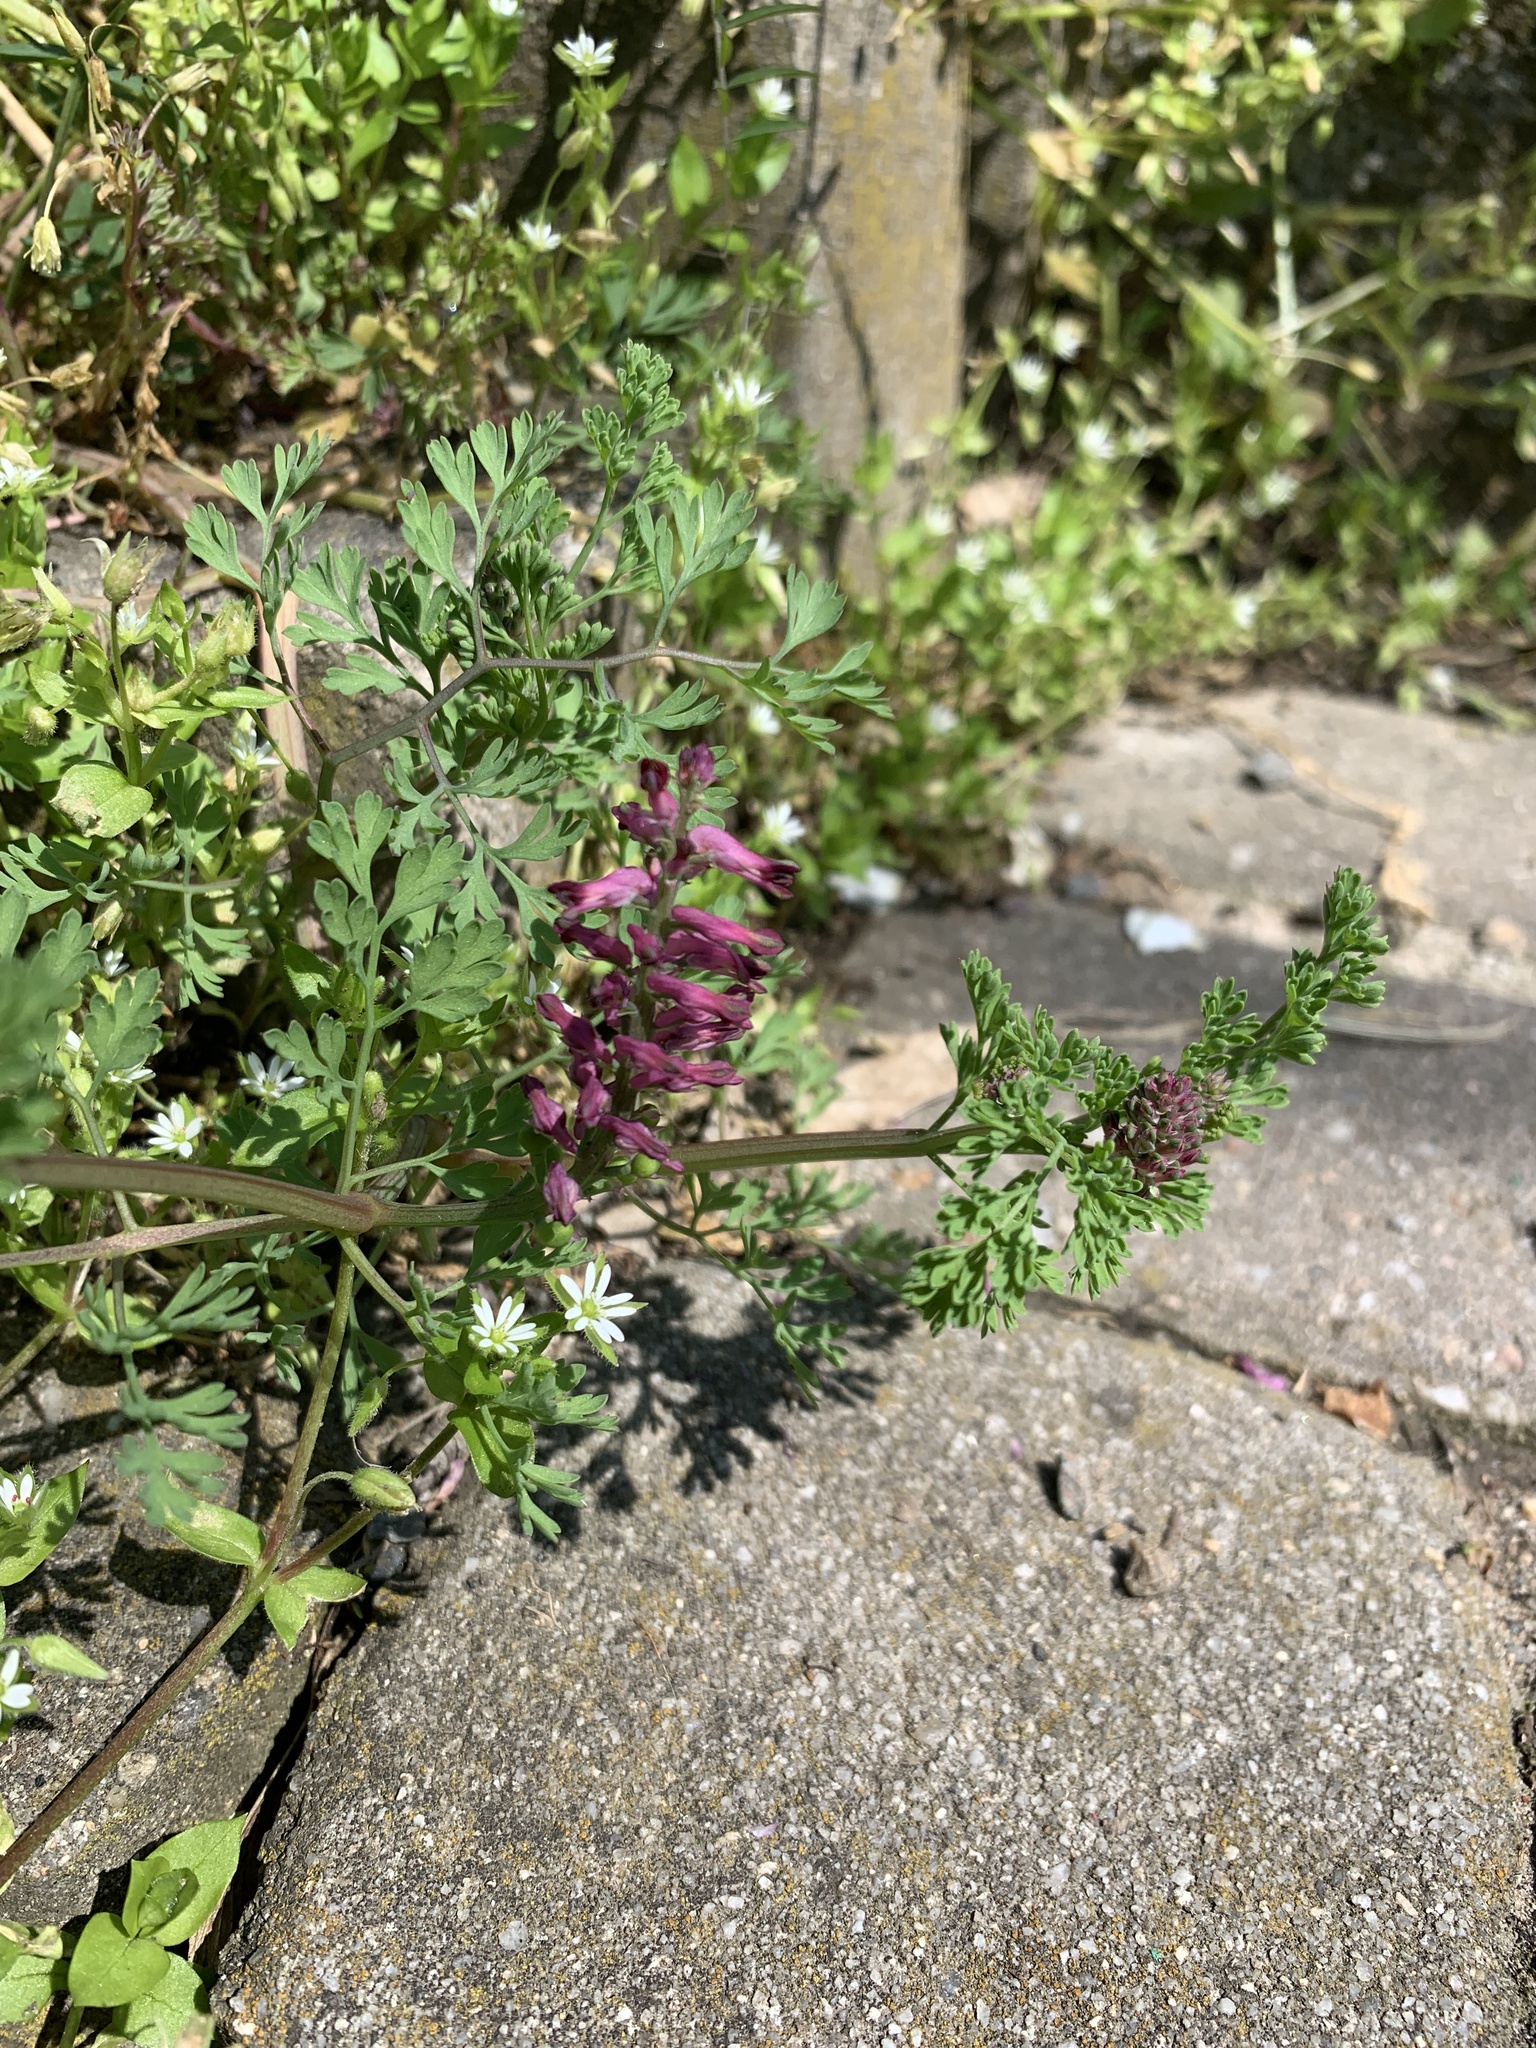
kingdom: Plantae
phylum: Tracheophyta
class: Magnoliopsida
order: Ranunculales
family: Papaveraceae
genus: Fumaria
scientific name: Fumaria officinalis
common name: Common fumitory
